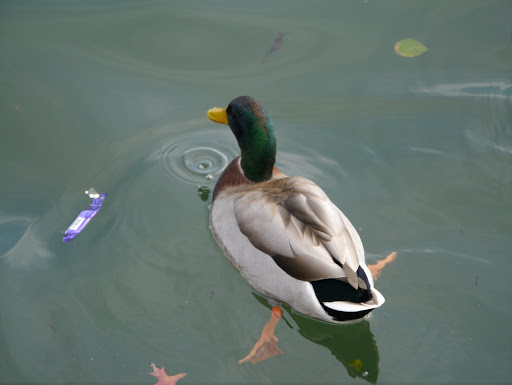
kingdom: Animalia
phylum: Chordata
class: Aves
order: Anseriformes
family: Anatidae
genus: Anas
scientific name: Anas platyrhynchos
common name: Mallard
